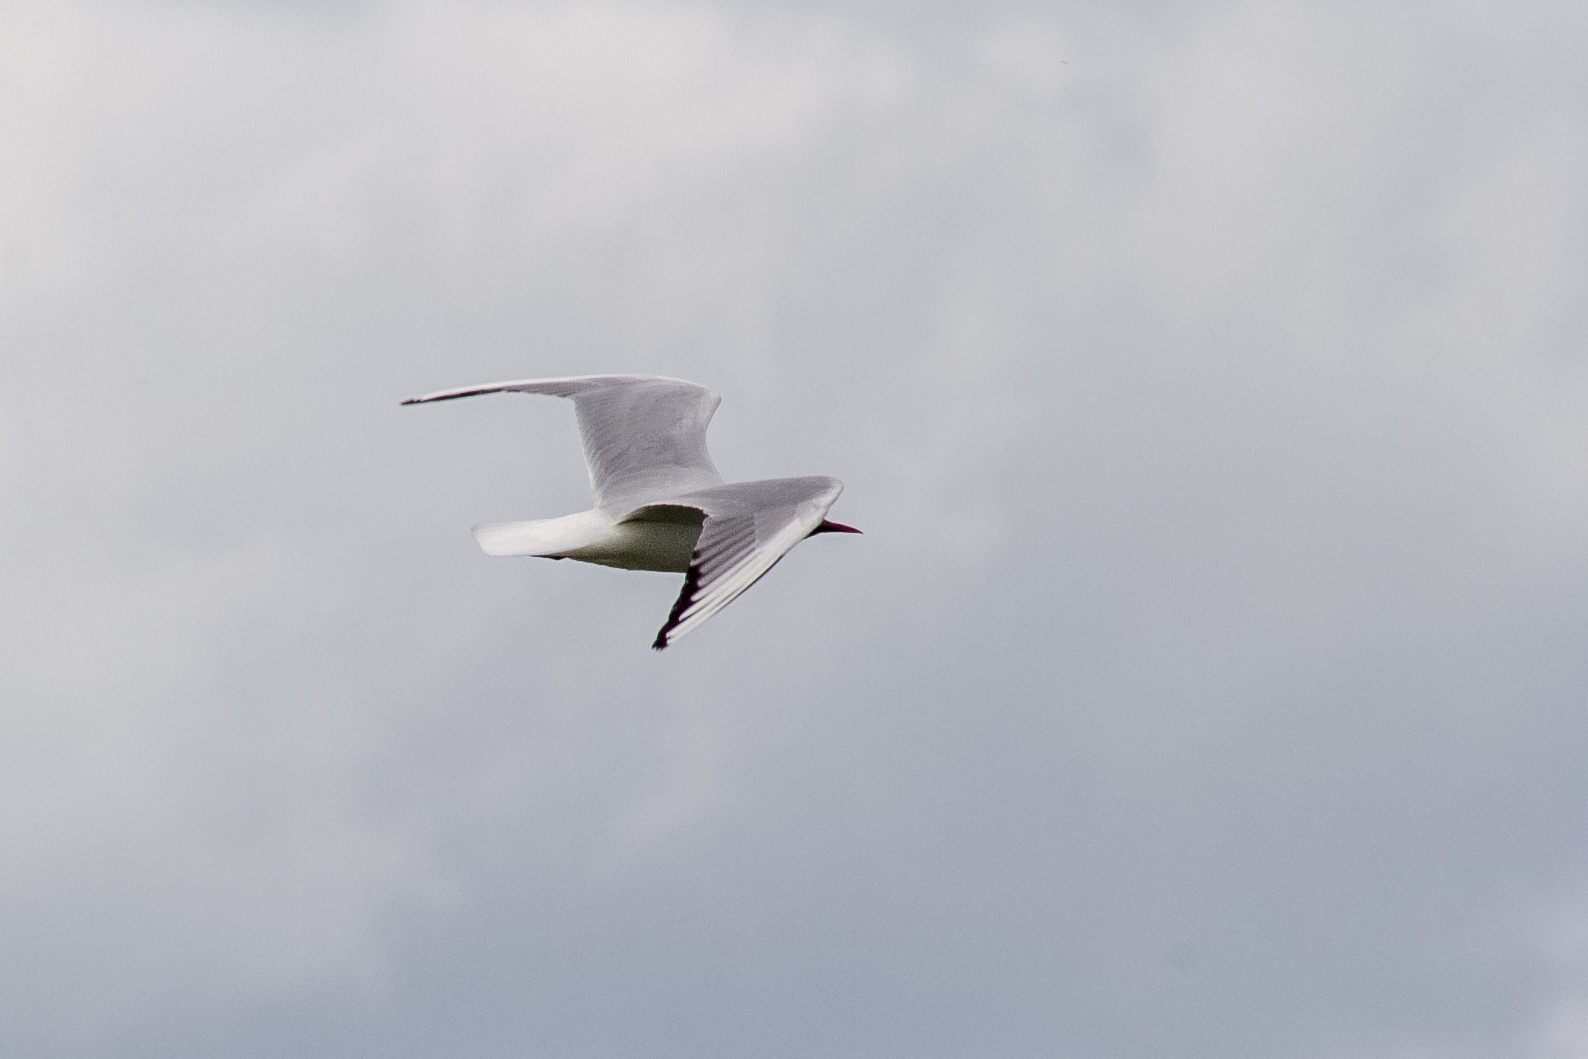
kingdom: Animalia
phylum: Chordata
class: Aves
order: Charadriiformes
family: Laridae
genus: Chroicocephalus
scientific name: Chroicocephalus ridibundus
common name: Black-headed gull
